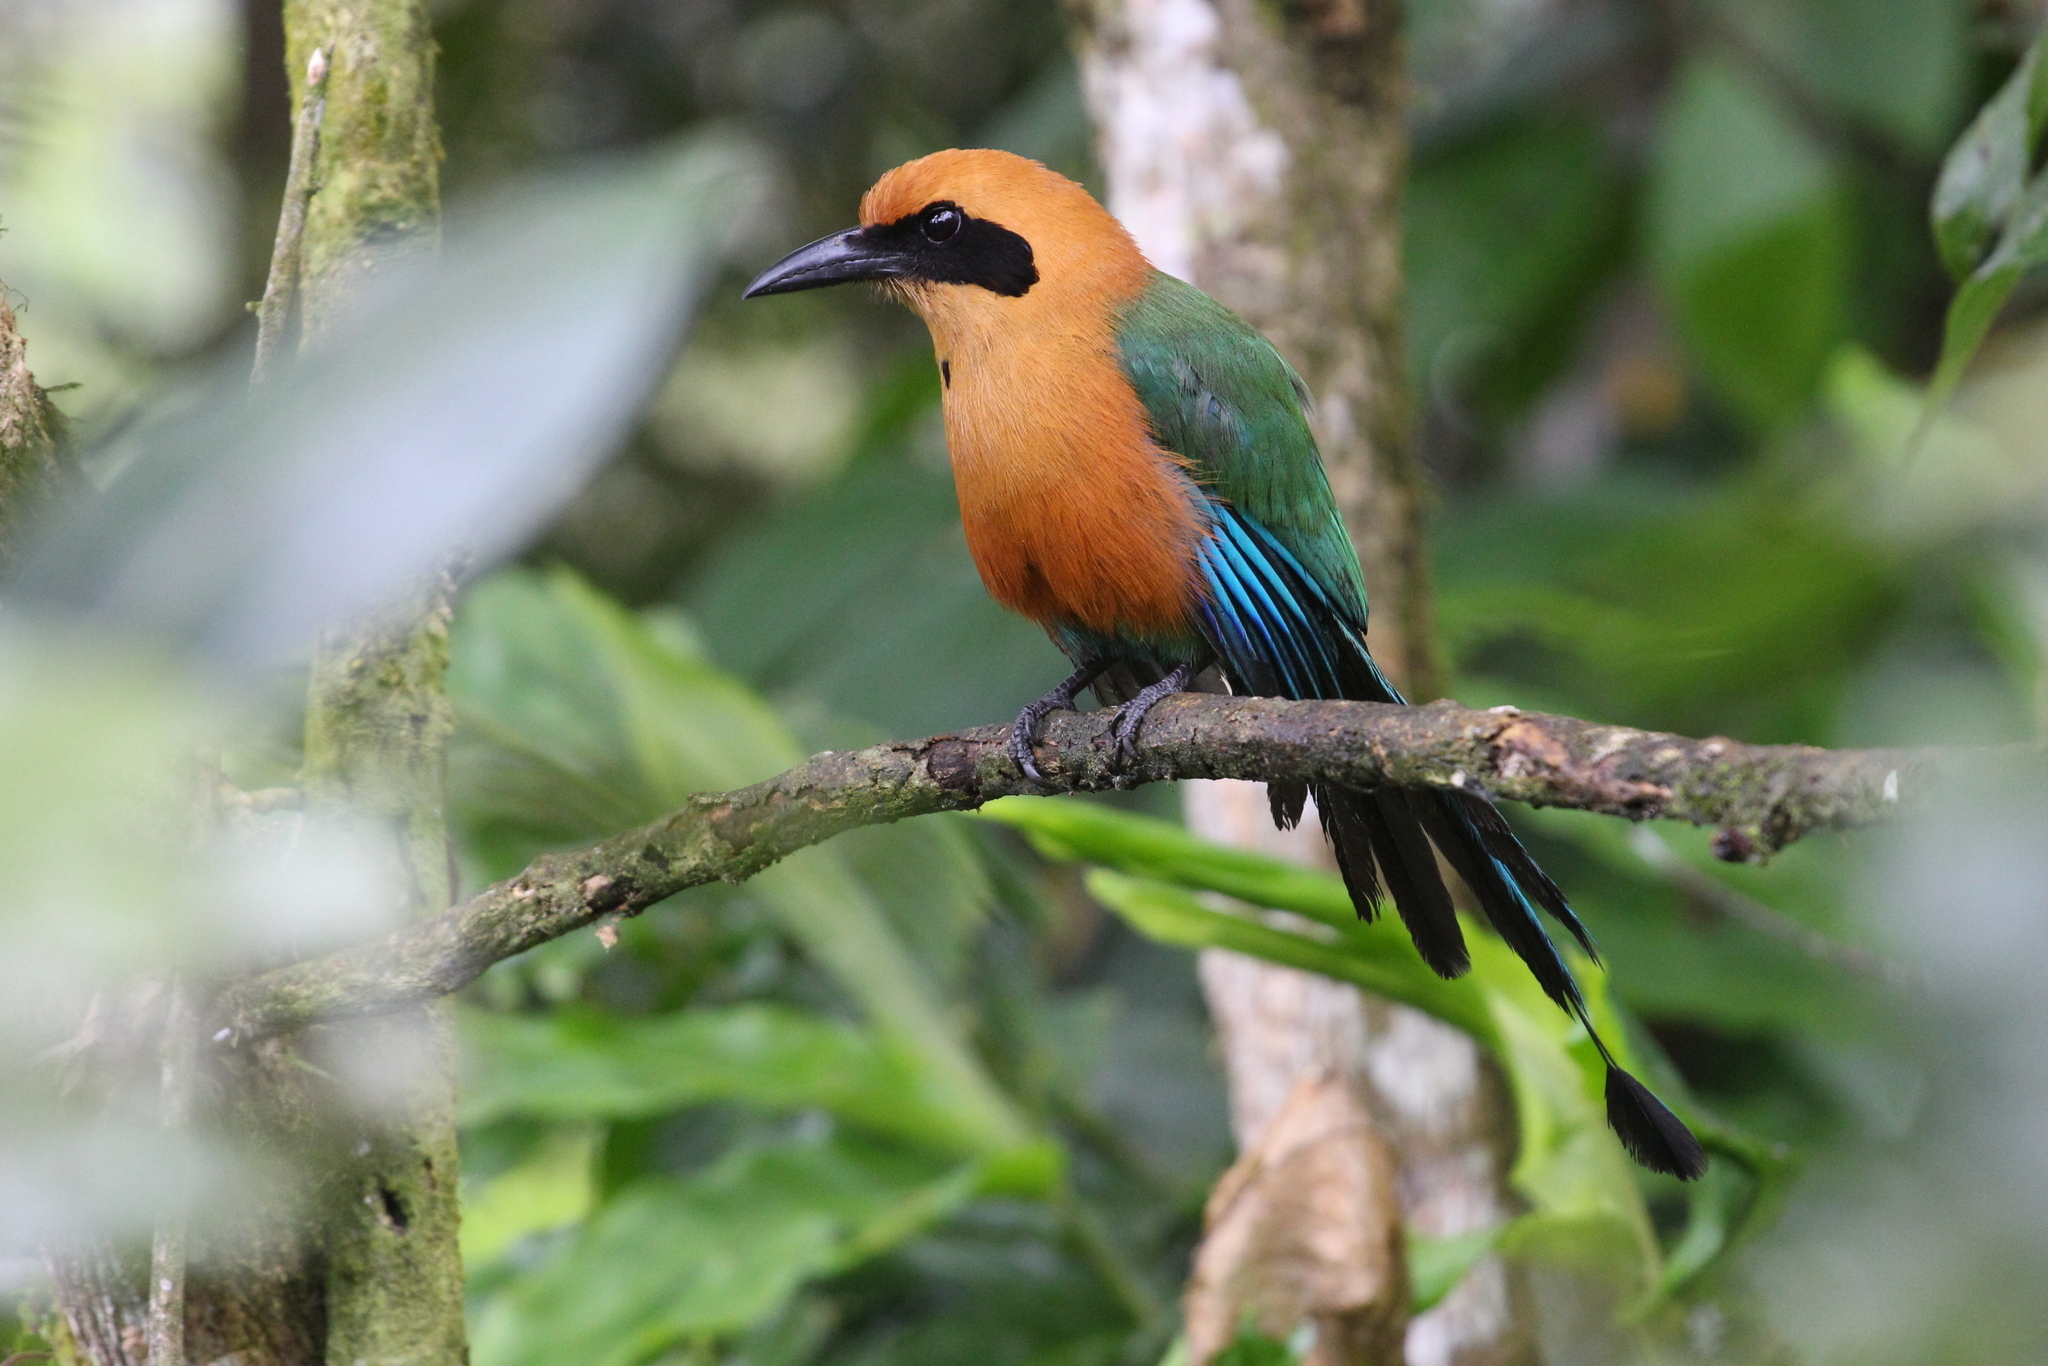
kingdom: Animalia
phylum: Chordata
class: Aves
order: Coraciiformes
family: Momotidae
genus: Baryphthengus
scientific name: Baryphthengus martii
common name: Rufous motmot
